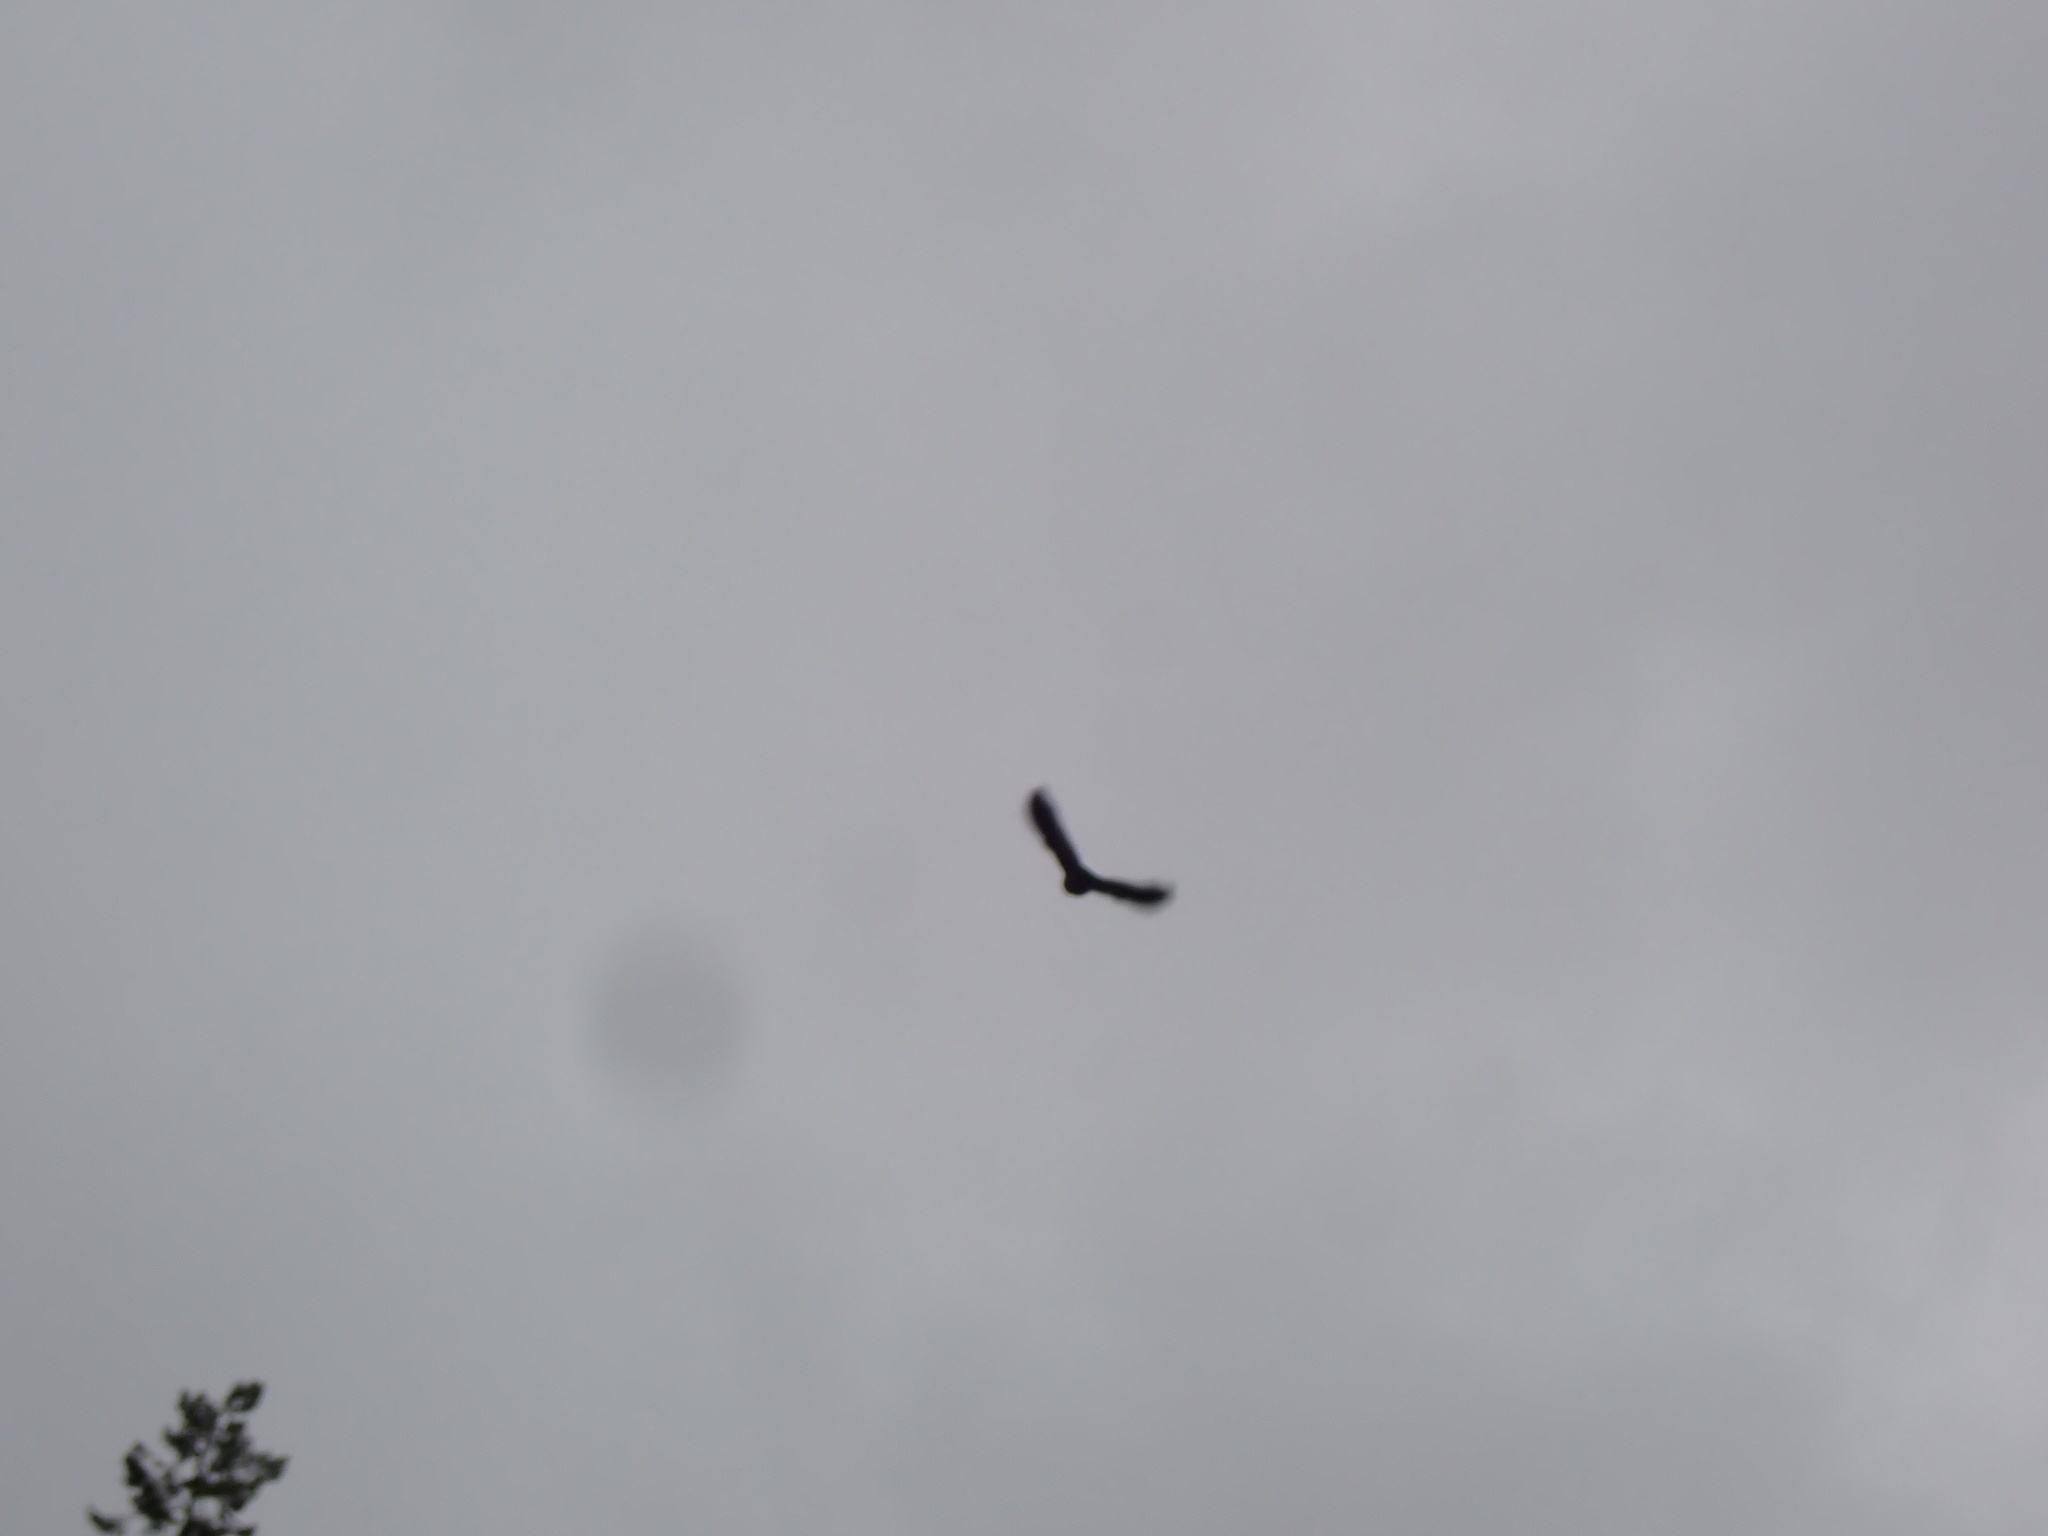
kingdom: Animalia
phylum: Chordata
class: Aves
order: Passeriformes
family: Icteridae
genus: Agelaius
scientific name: Agelaius phoeniceus
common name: Red-winged blackbird
